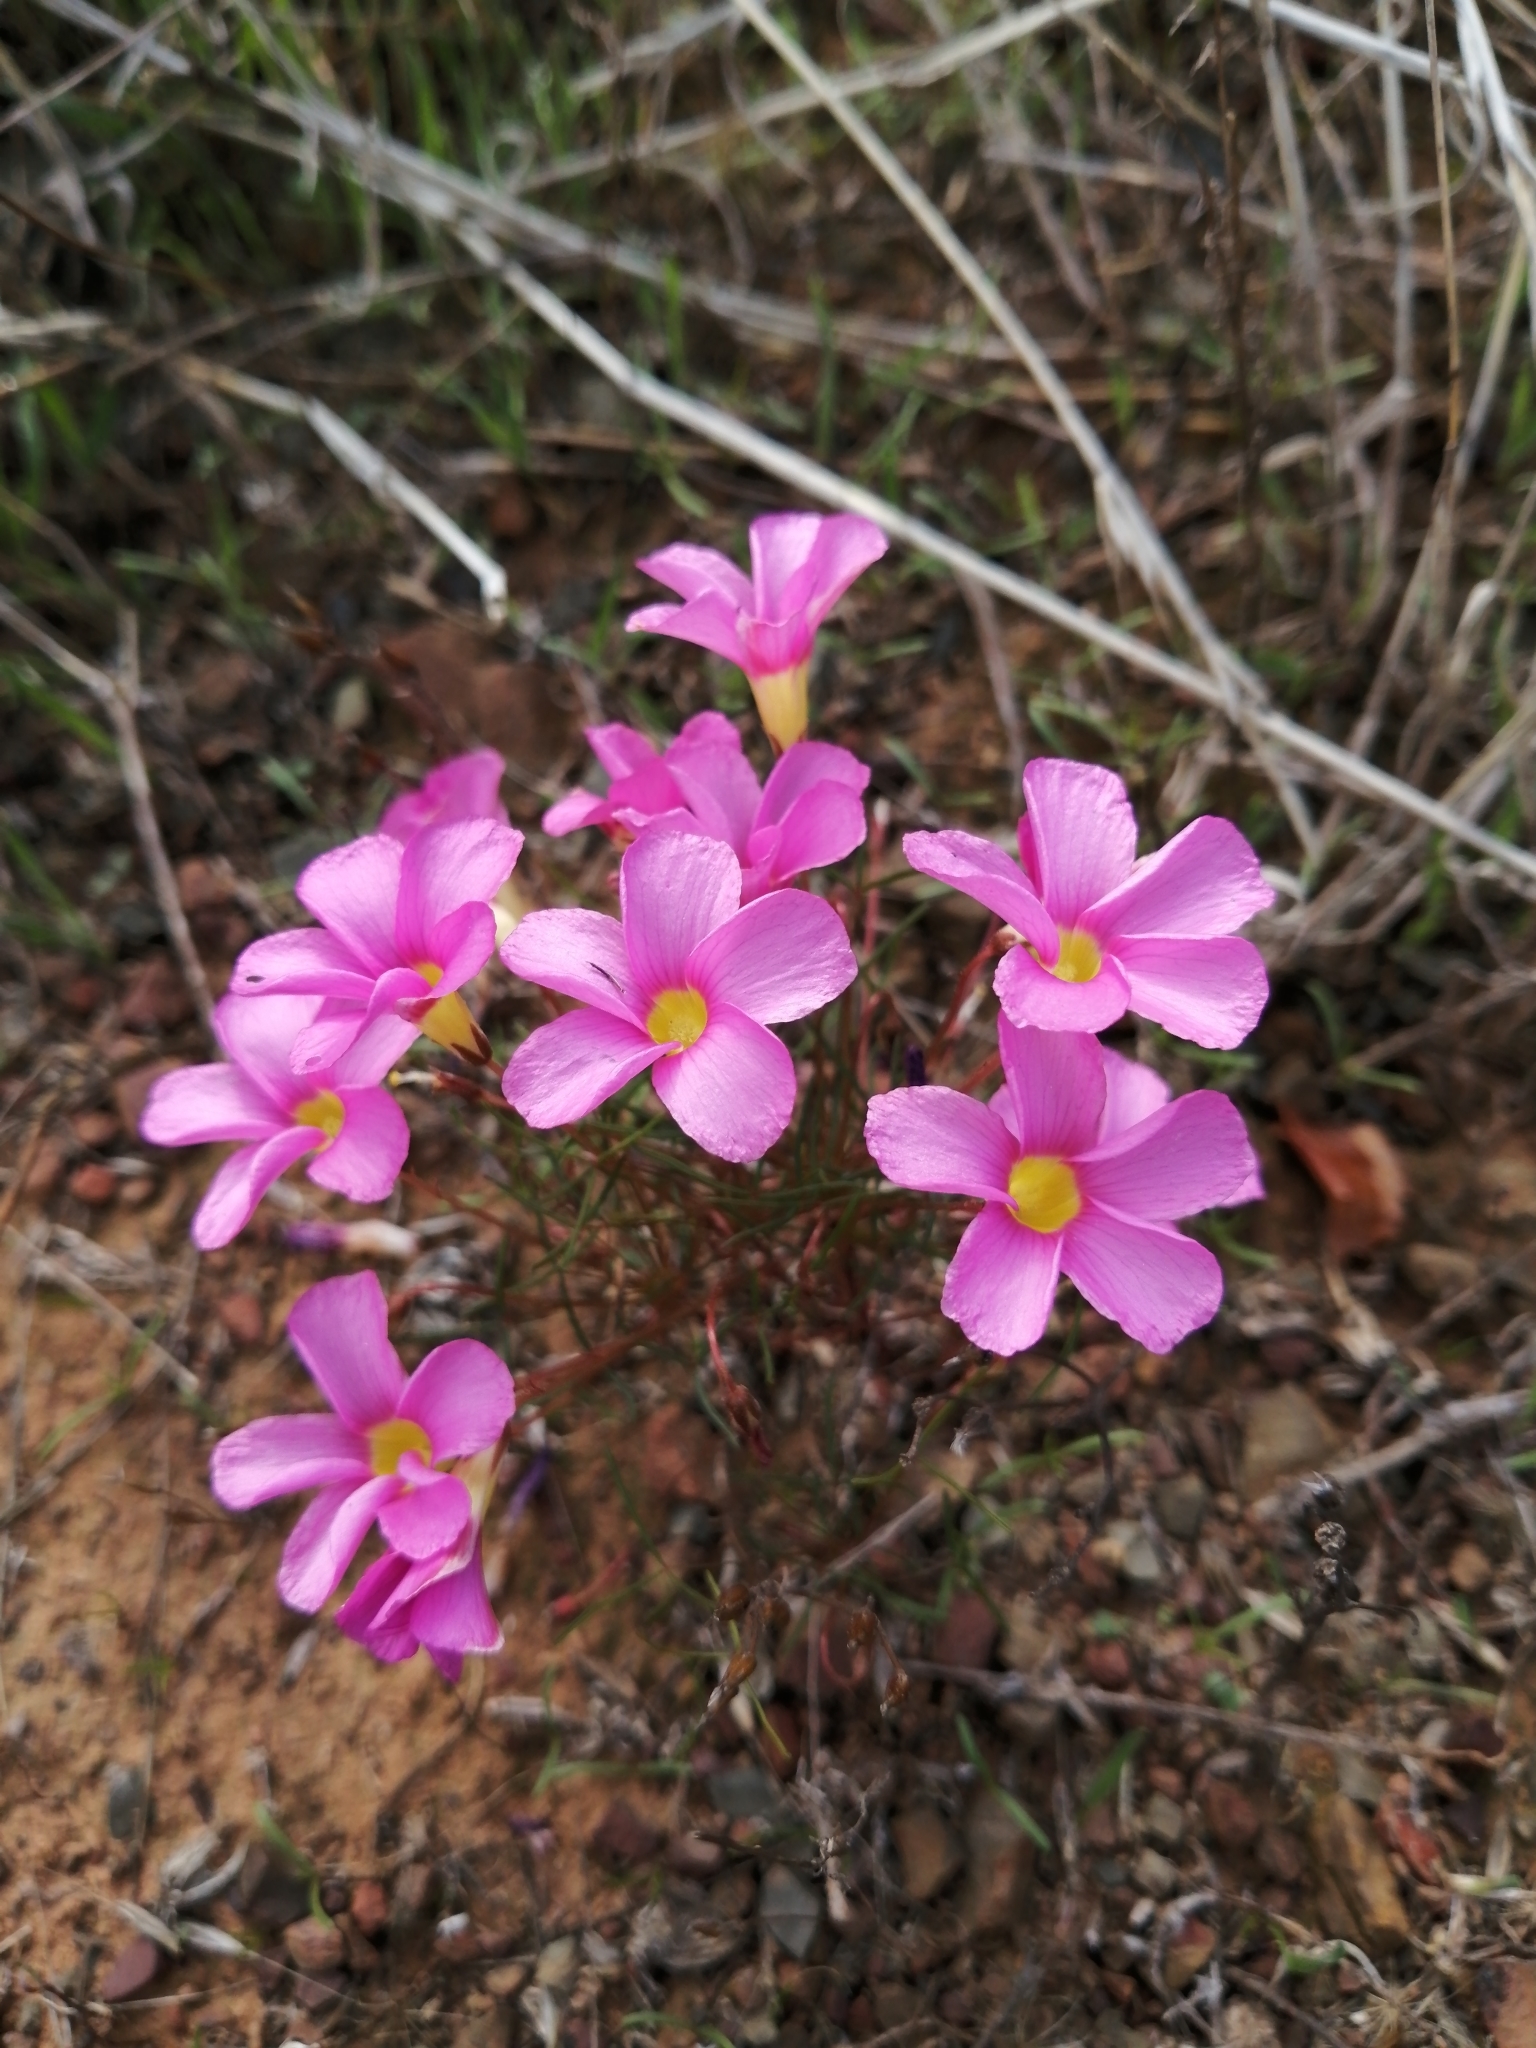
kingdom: Plantae
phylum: Tracheophyta
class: Magnoliopsida
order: Oxalidales
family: Oxalidaceae
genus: Oxalis
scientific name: Oxalis leptogramma
